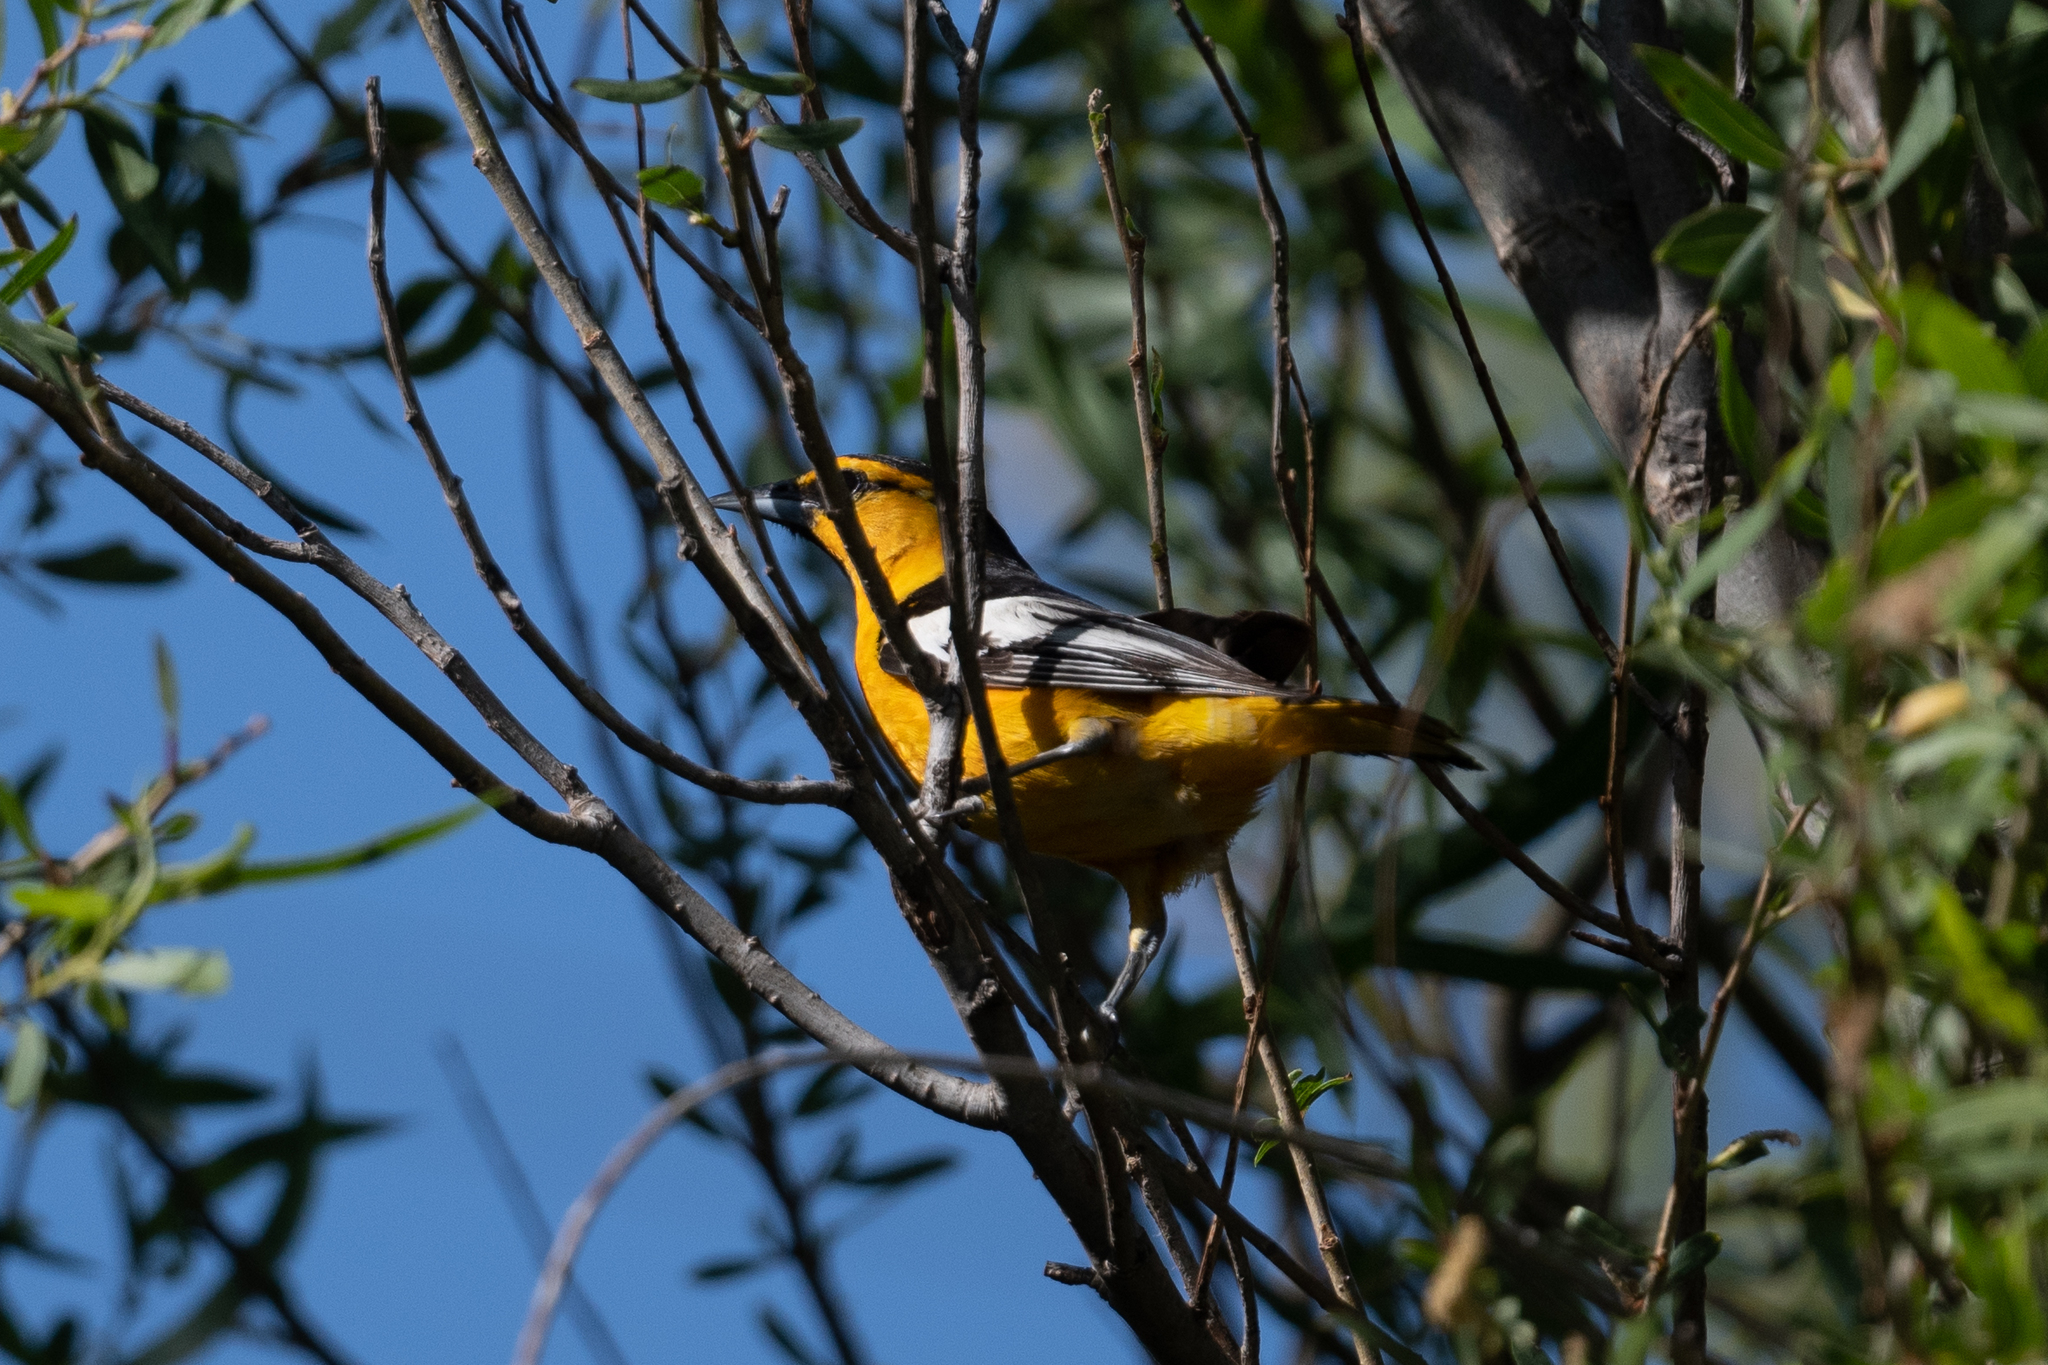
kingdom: Animalia
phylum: Chordata
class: Aves
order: Passeriformes
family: Icteridae
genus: Icterus
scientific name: Icterus bullockii
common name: Bullock's oriole
